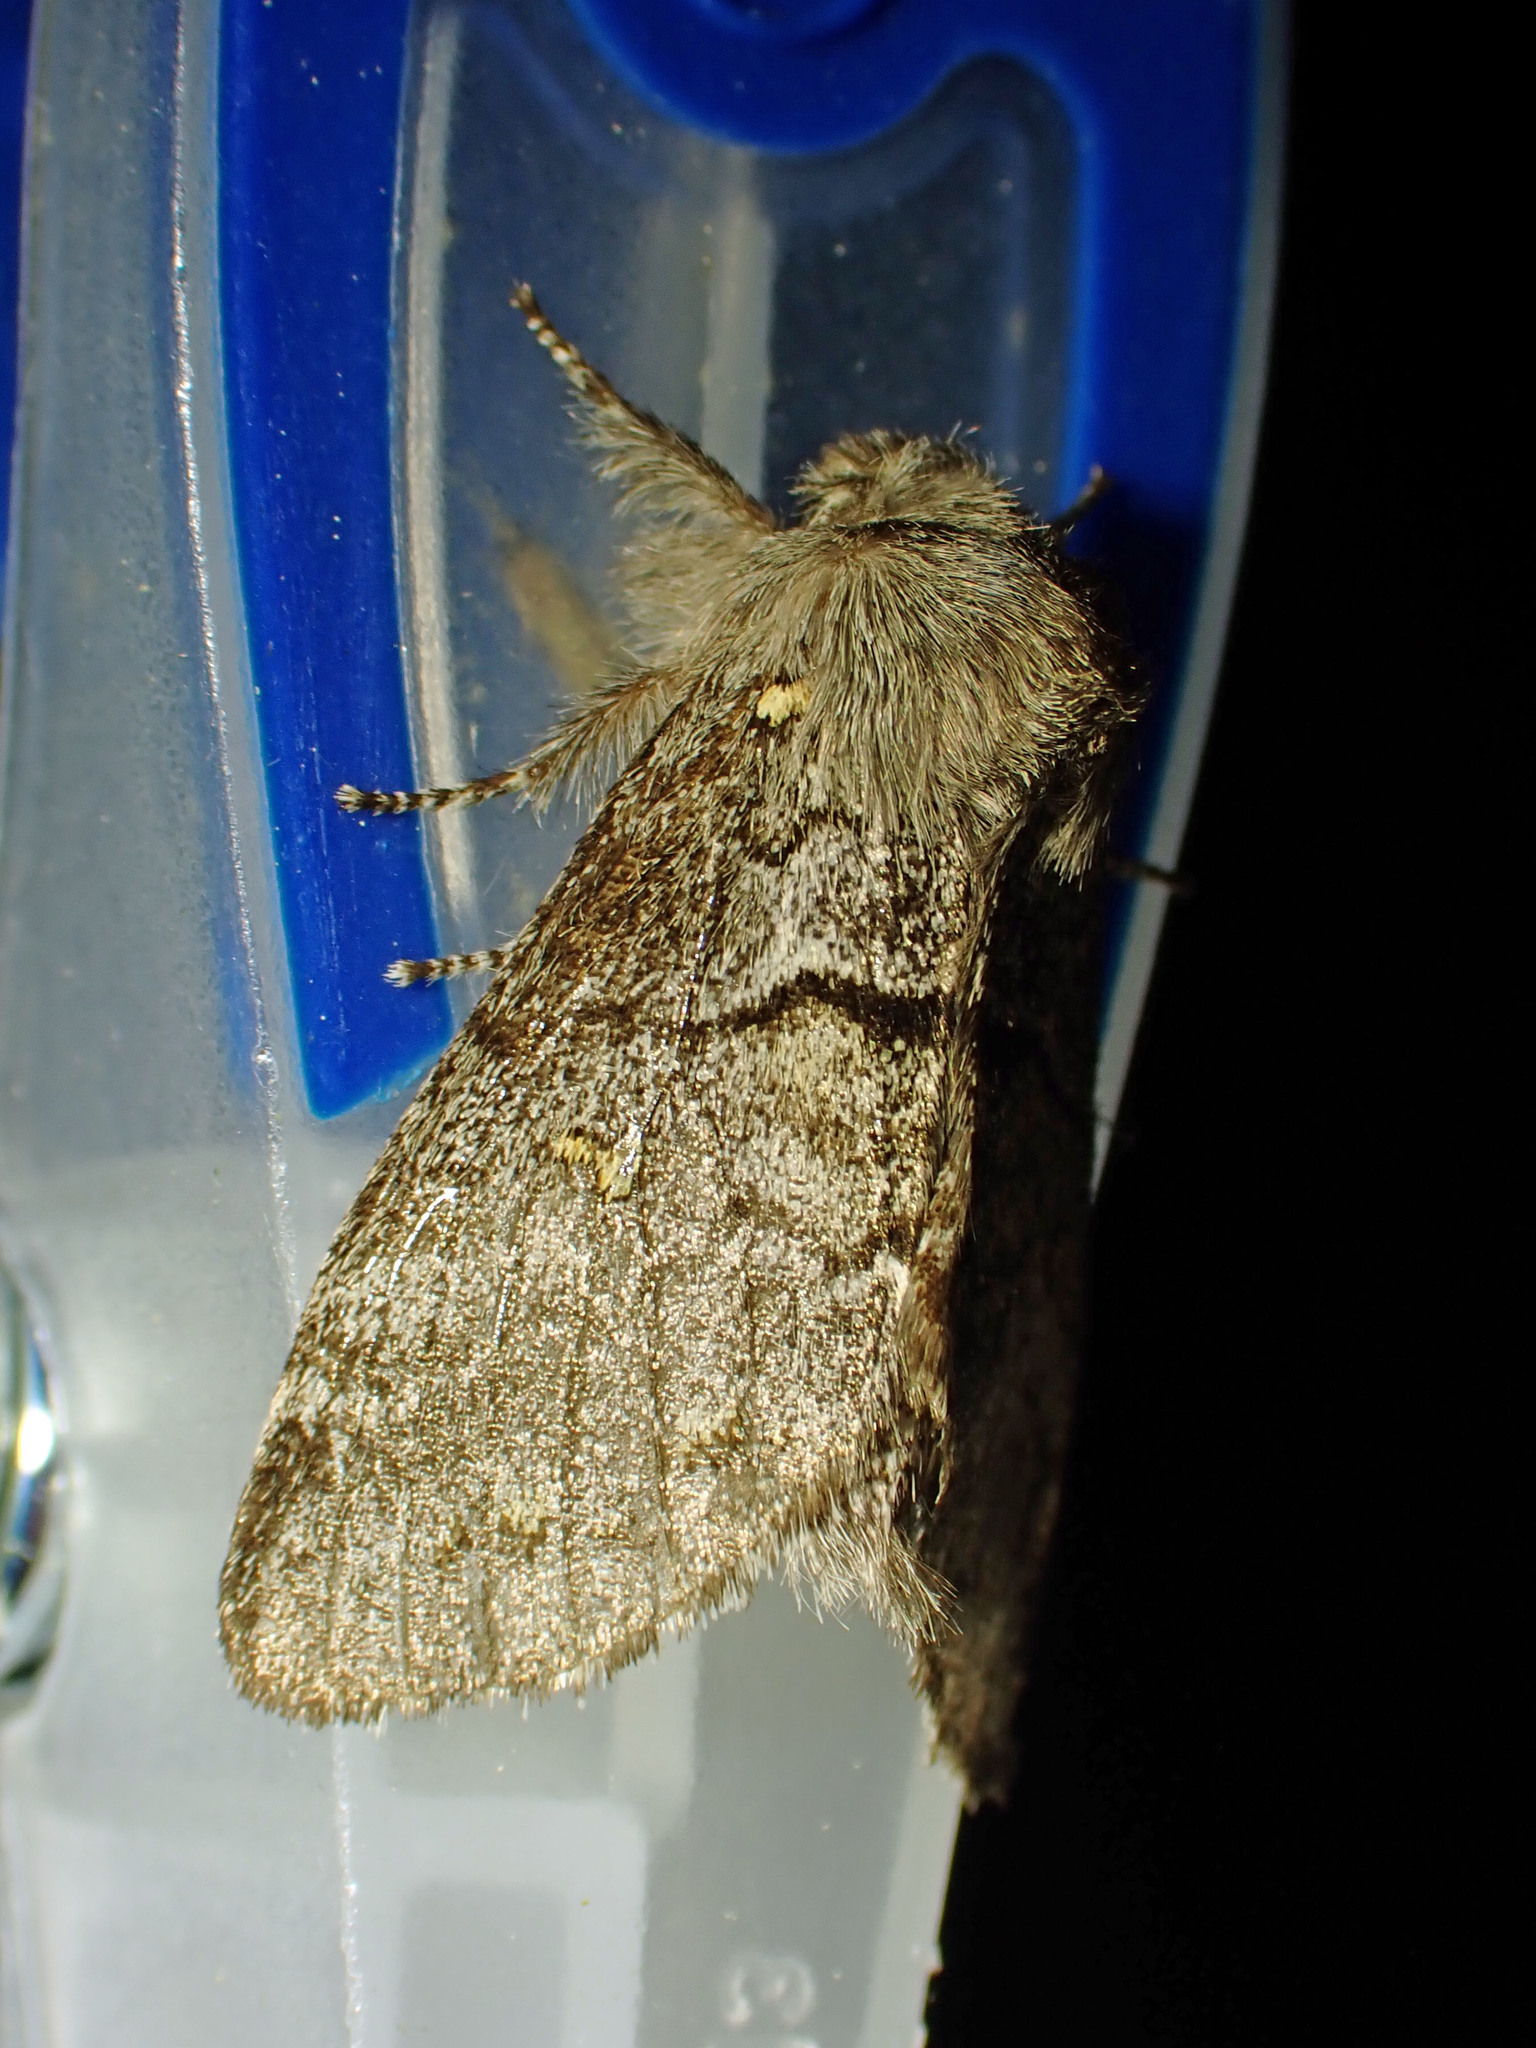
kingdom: Animalia
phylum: Arthropoda
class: Insecta
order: Lepidoptera
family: Notodontidae
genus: Gluphisia
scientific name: Gluphisia avimacula
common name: Four-spotted gluphisia moth
